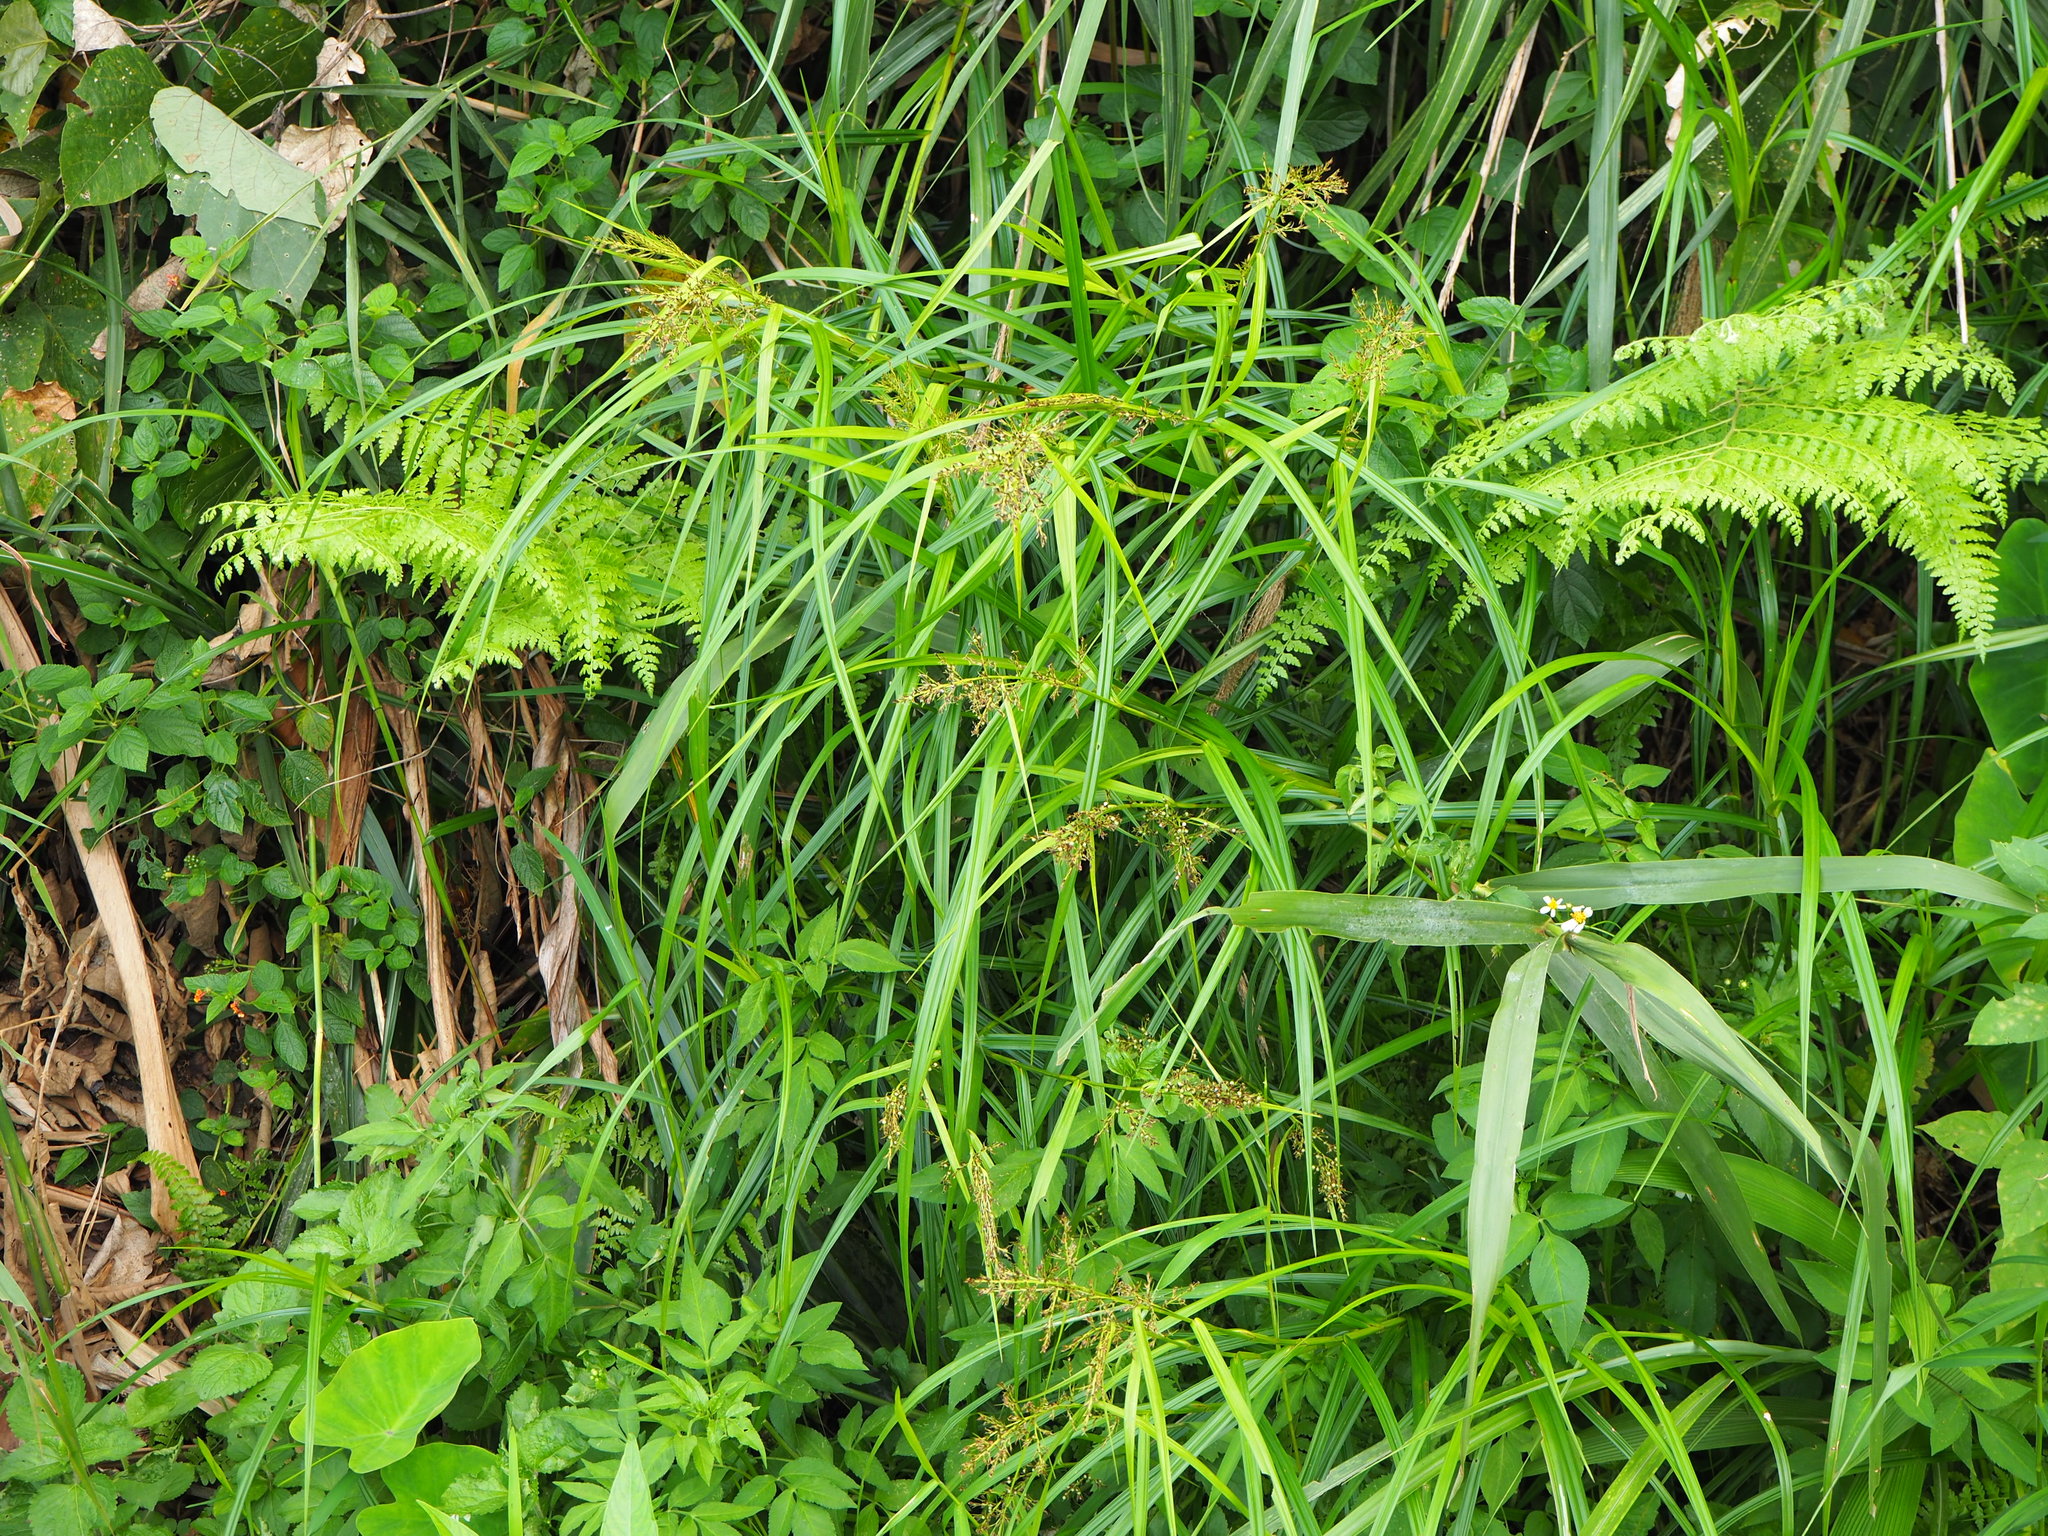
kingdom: Plantae
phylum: Tracheophyta
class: Liliopsida
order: Poales
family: Cyperaceae
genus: Scleria
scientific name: Scleria terrestris
